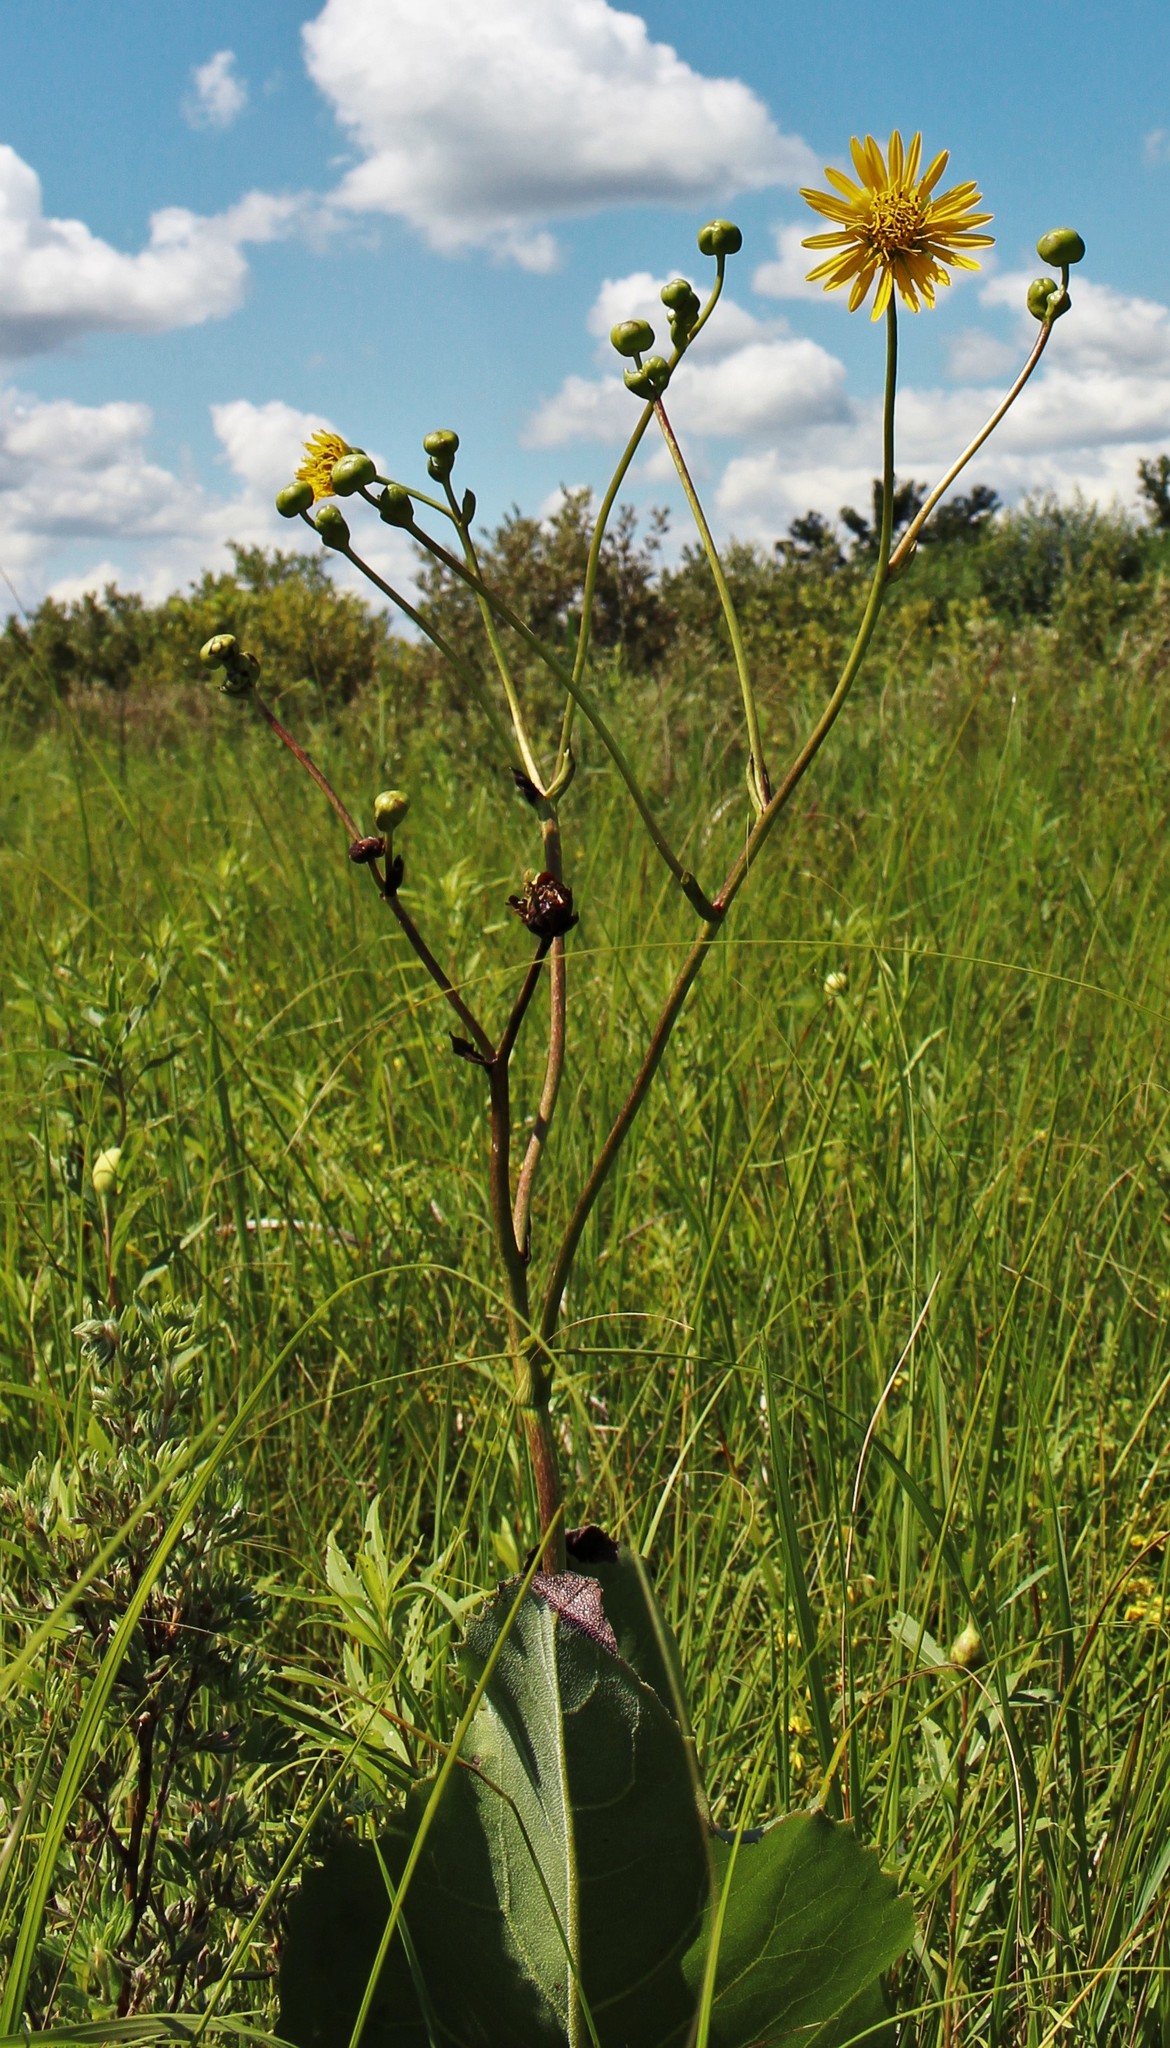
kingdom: Plantae
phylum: Tracheophyta
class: Magnoliopsida
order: Asterales
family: Asteraceae
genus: Silphium
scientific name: Silphium terebinthinaceum
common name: Basal-leaf rosinweed
